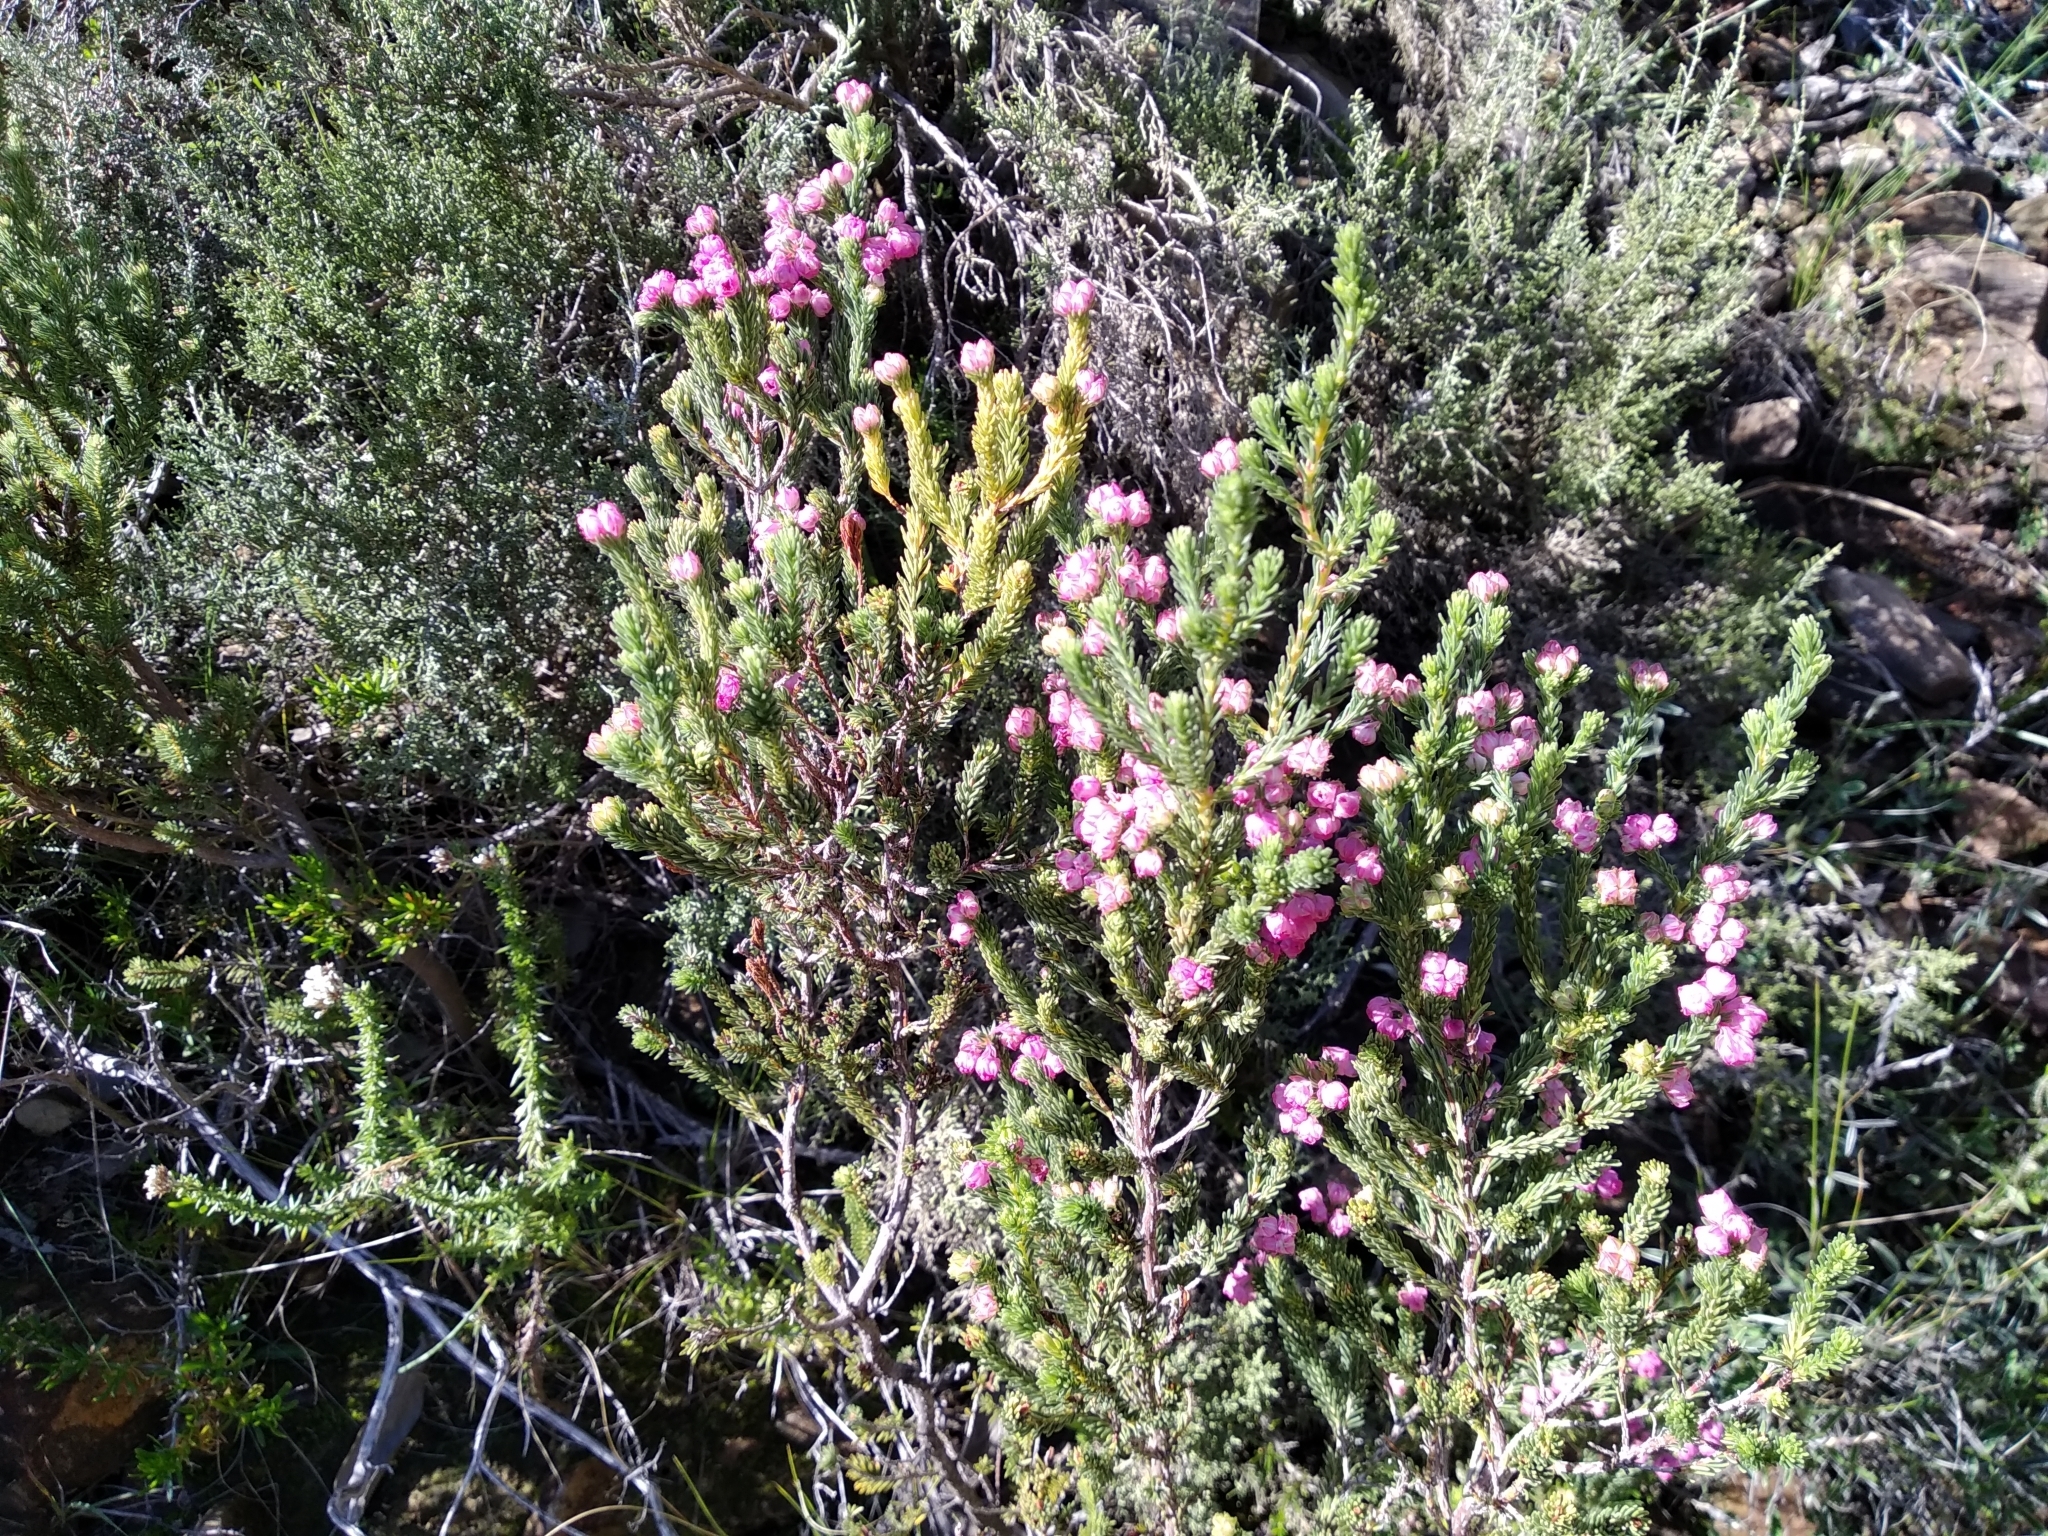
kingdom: Plantae
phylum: Tracheophyta
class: Magnoliopsida
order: Ericales
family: Ericaceae
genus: Erica
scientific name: Erica baccans
